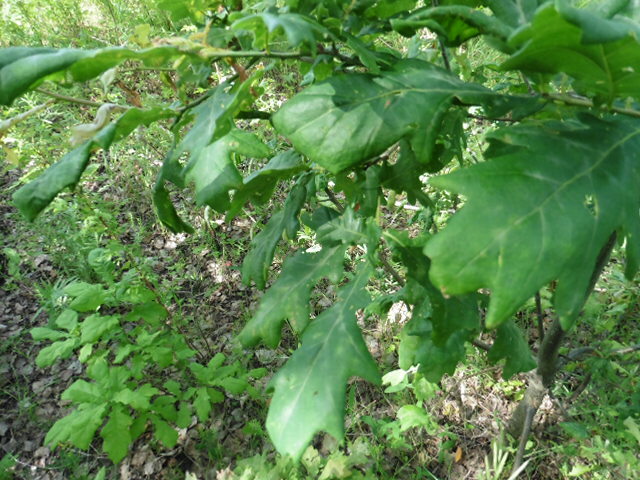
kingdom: Plantae
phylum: Tracheophyta
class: Magnoliopsida
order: Fagales
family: Fagaceae
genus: Quercus
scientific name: Quercus robur
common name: Pedunculate oak
